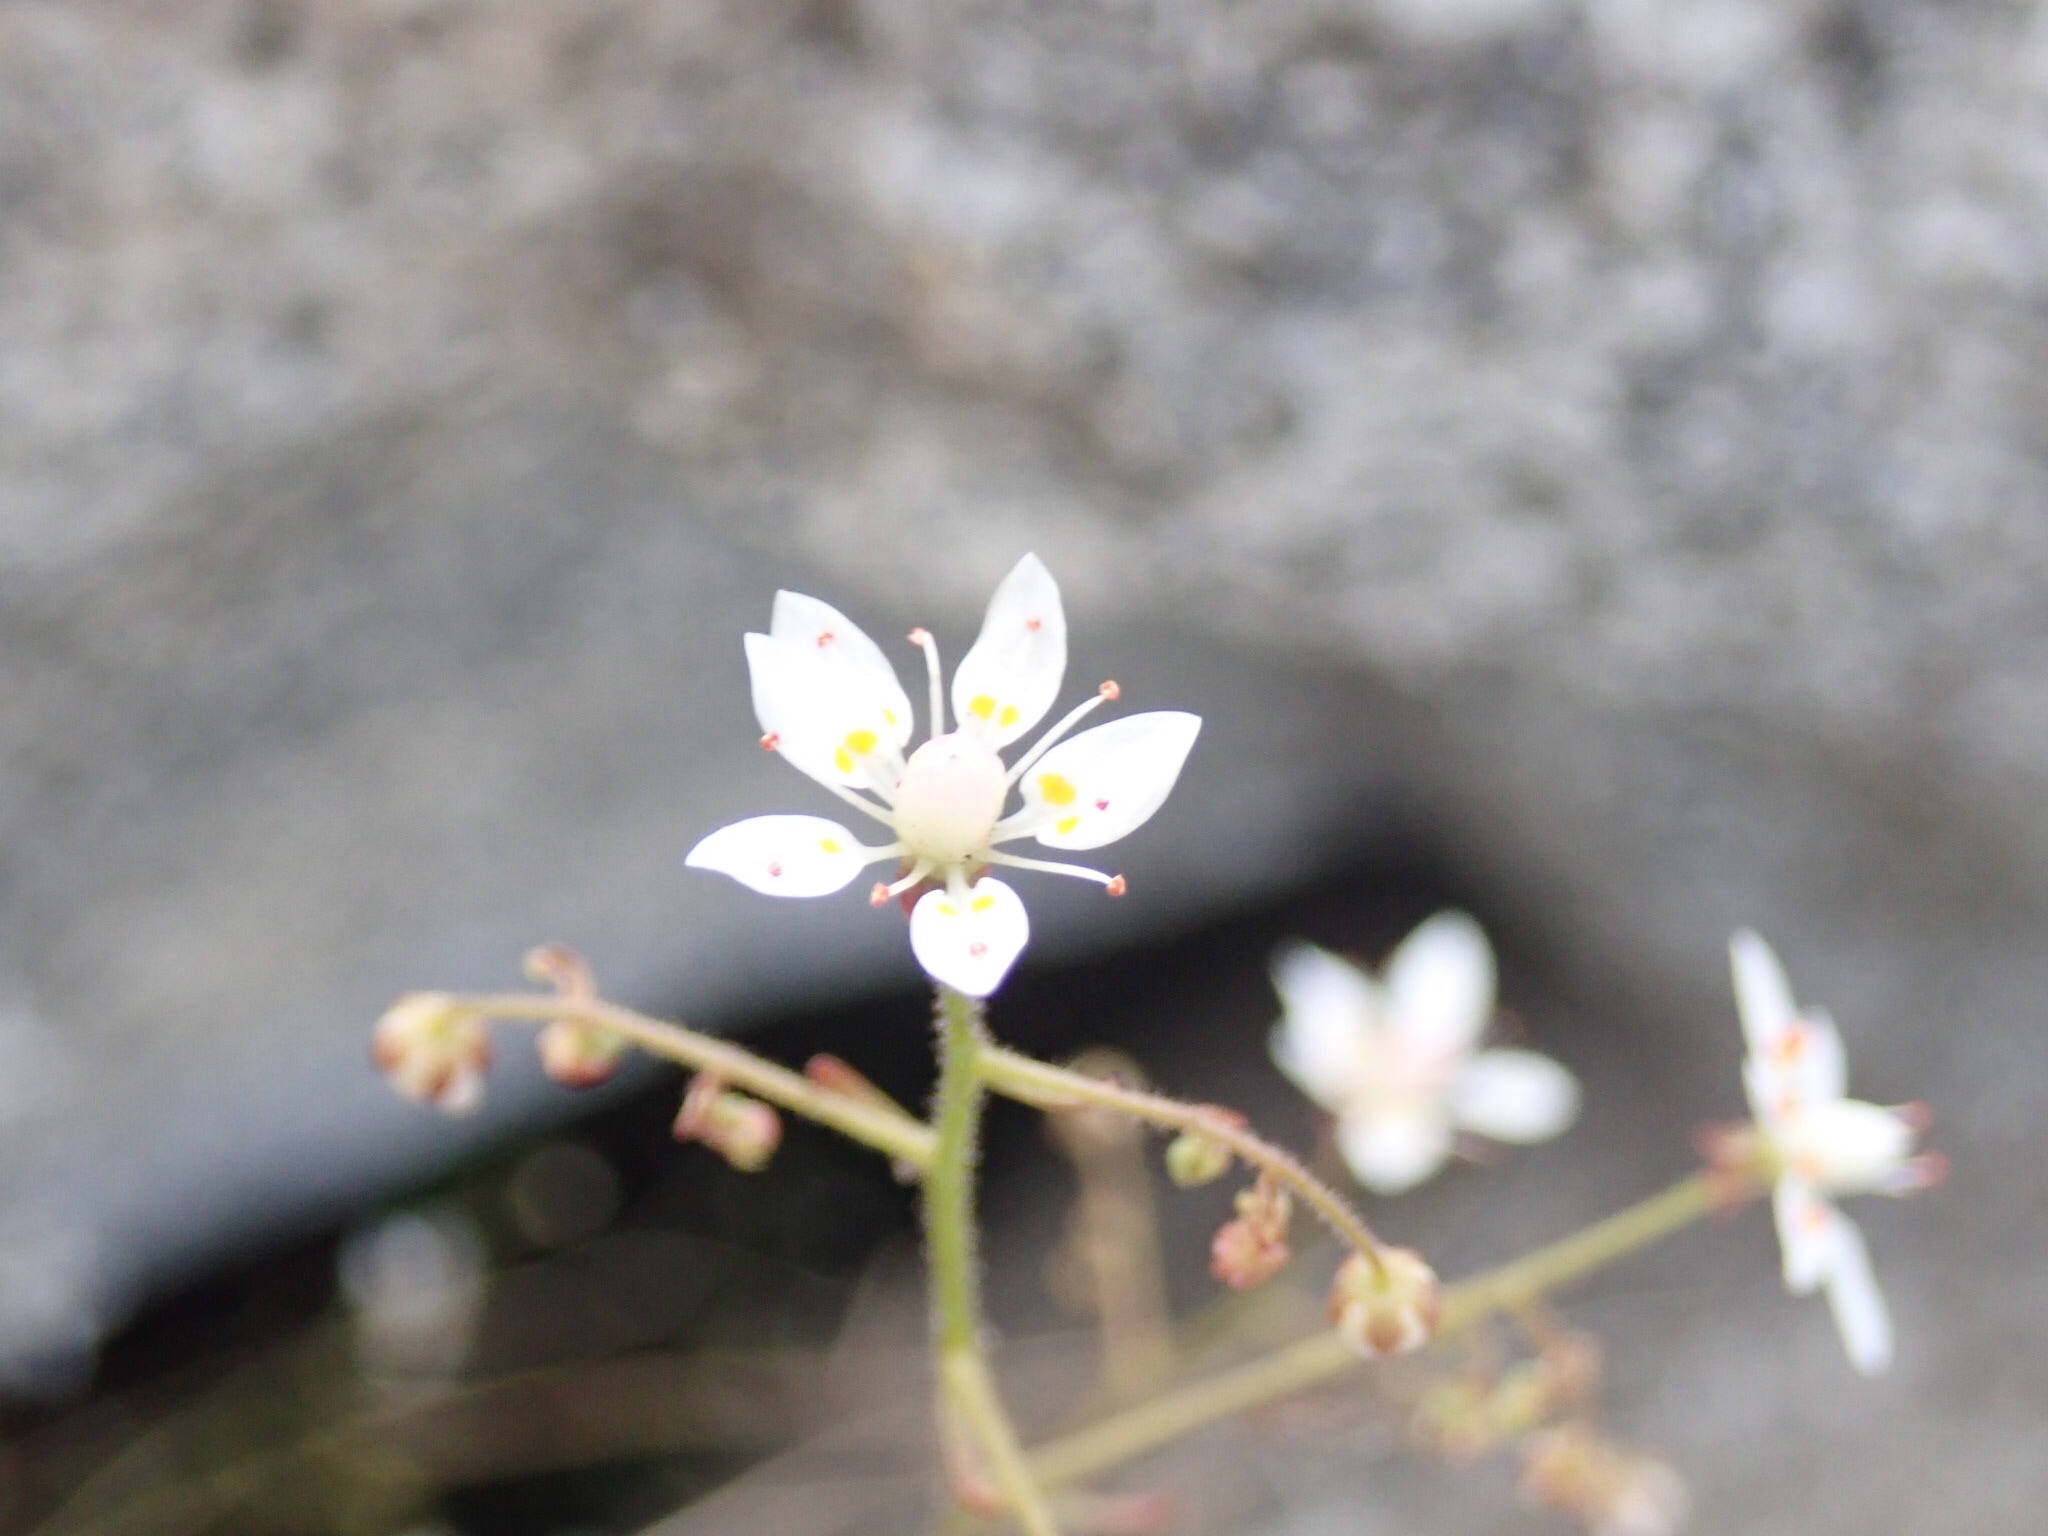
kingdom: Plantae
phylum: Tracheophyta
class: Magnoliopsida
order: Saxifragales
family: Saxifragaceae
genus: Micranthes
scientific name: Micranthes ferruginea
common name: Rusty saxifrage
